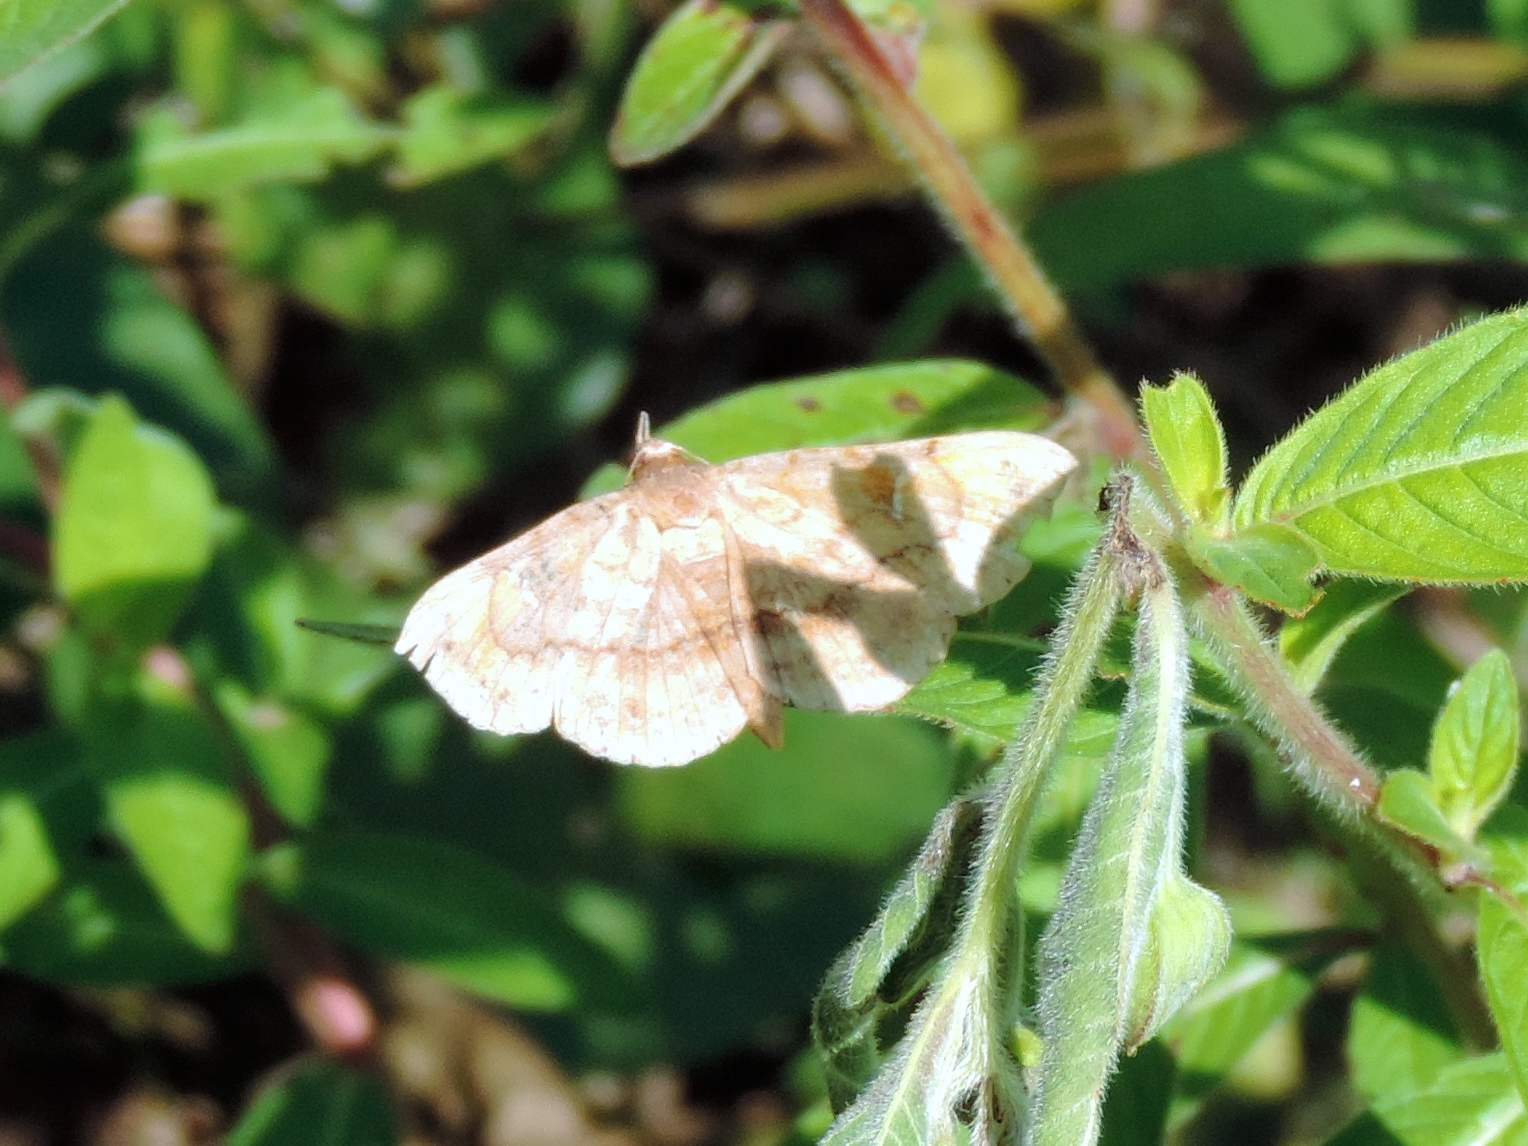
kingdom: Animalia
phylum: Arthropoda
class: Insecta
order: Lepidoptera
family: Erebidae
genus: Azeta
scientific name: Azeta
